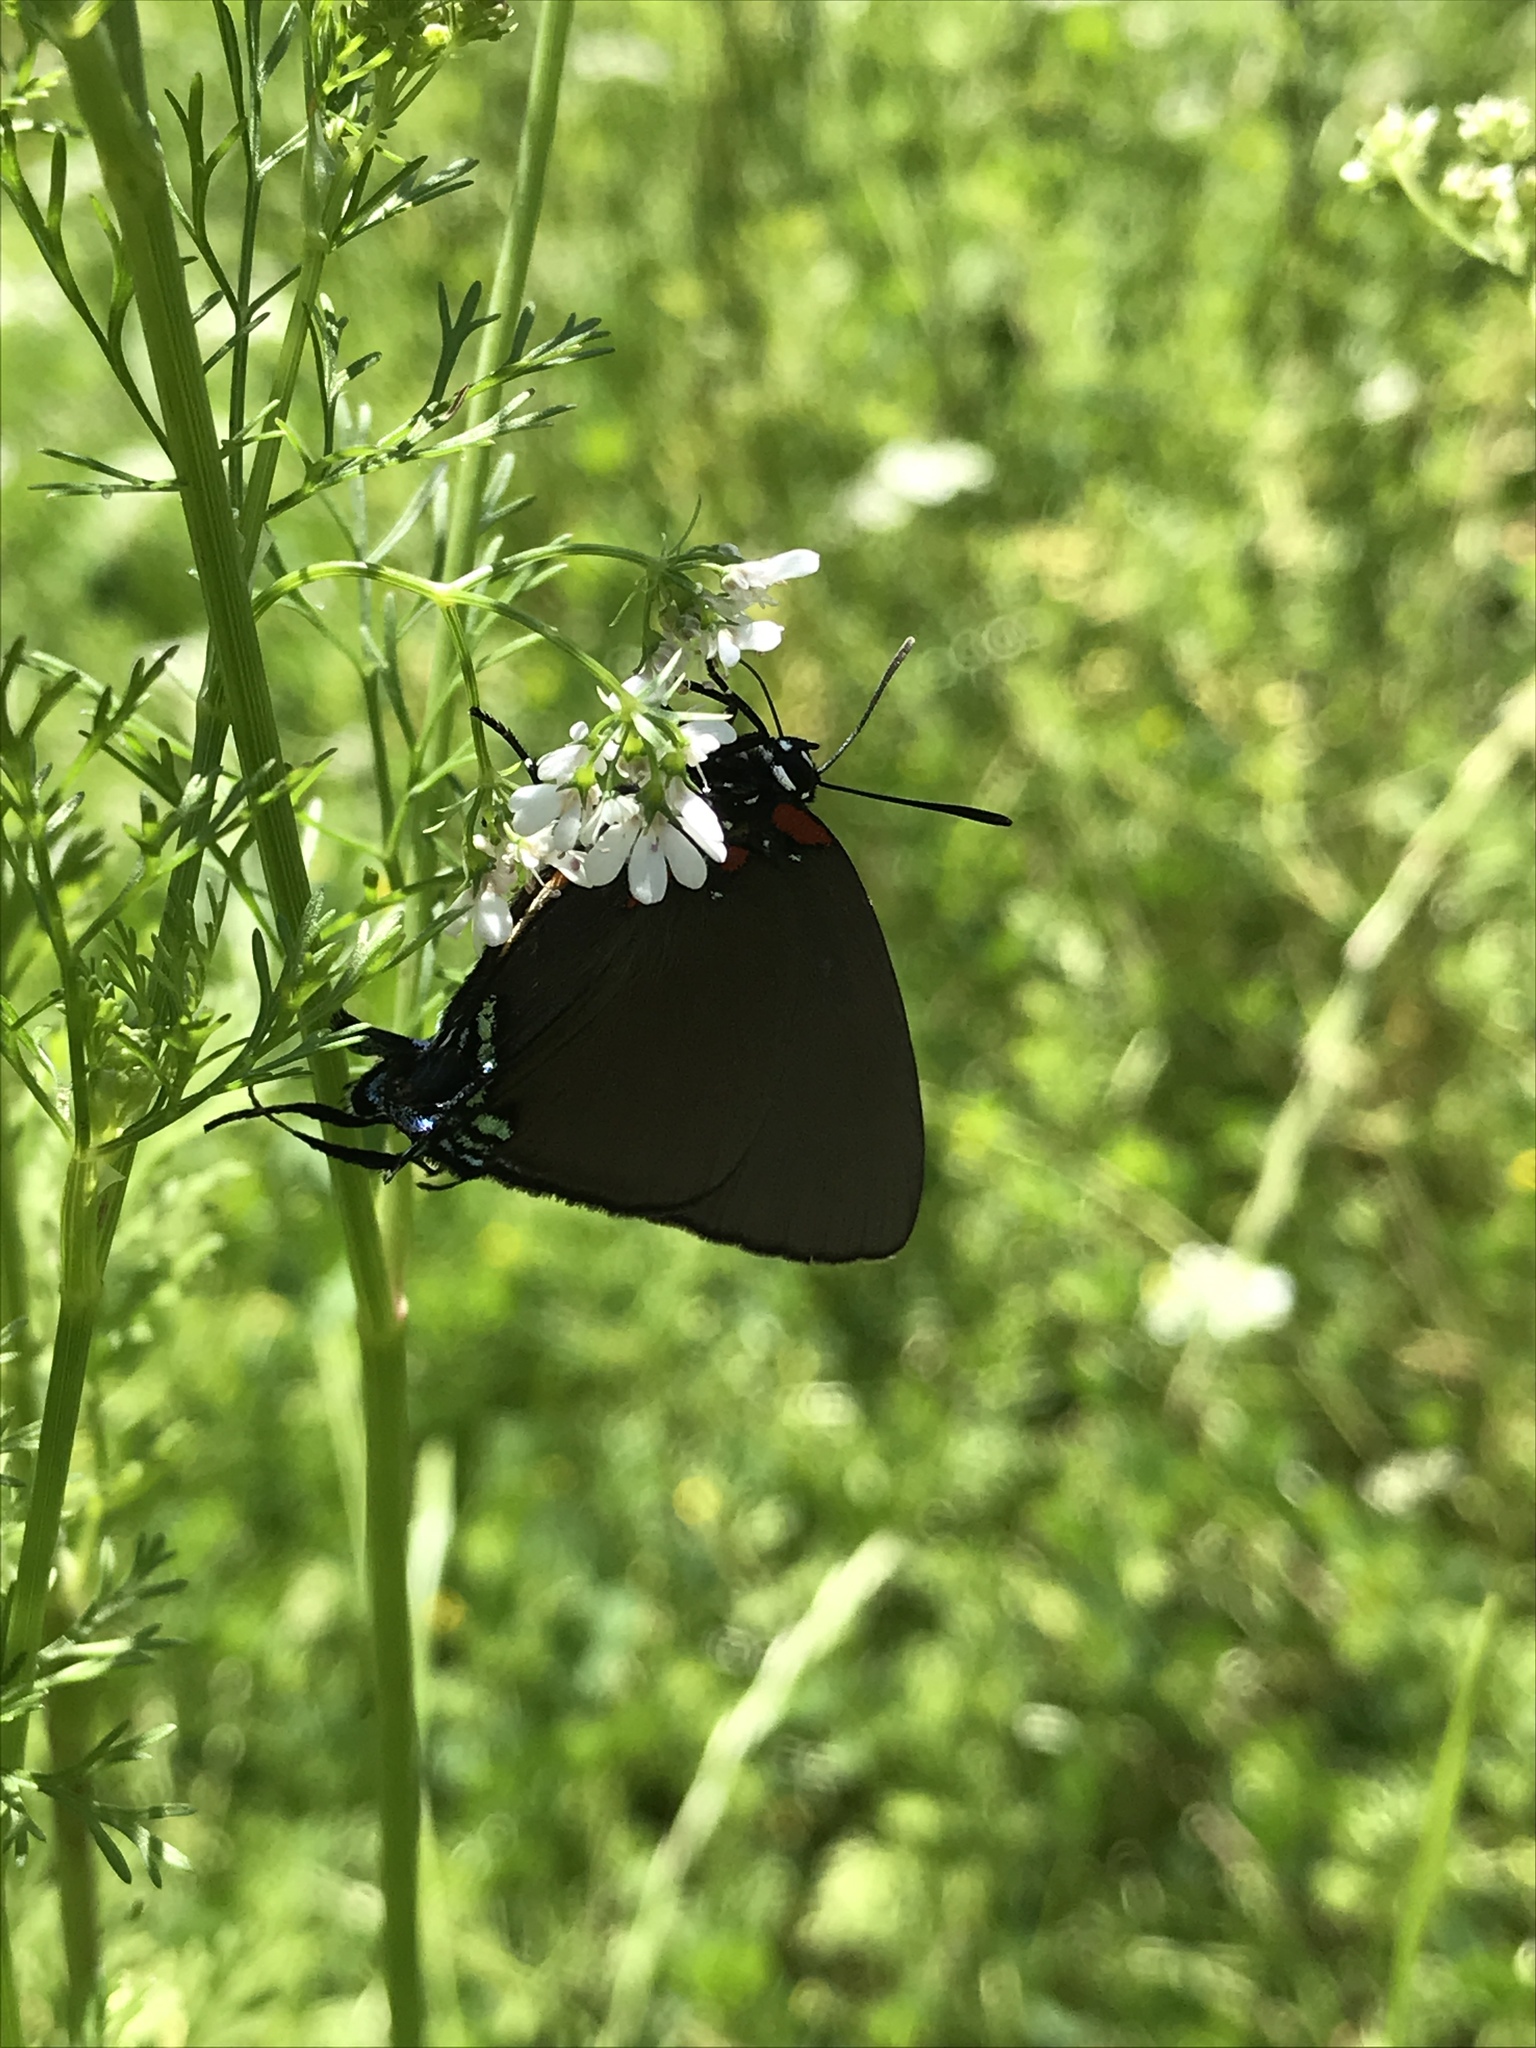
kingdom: Animalia
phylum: Arthropoda
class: Insecta
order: Lepidoptera
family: Lycaenidae
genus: Atlides
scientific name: Atlides halesus
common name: Great purple hairstreak
